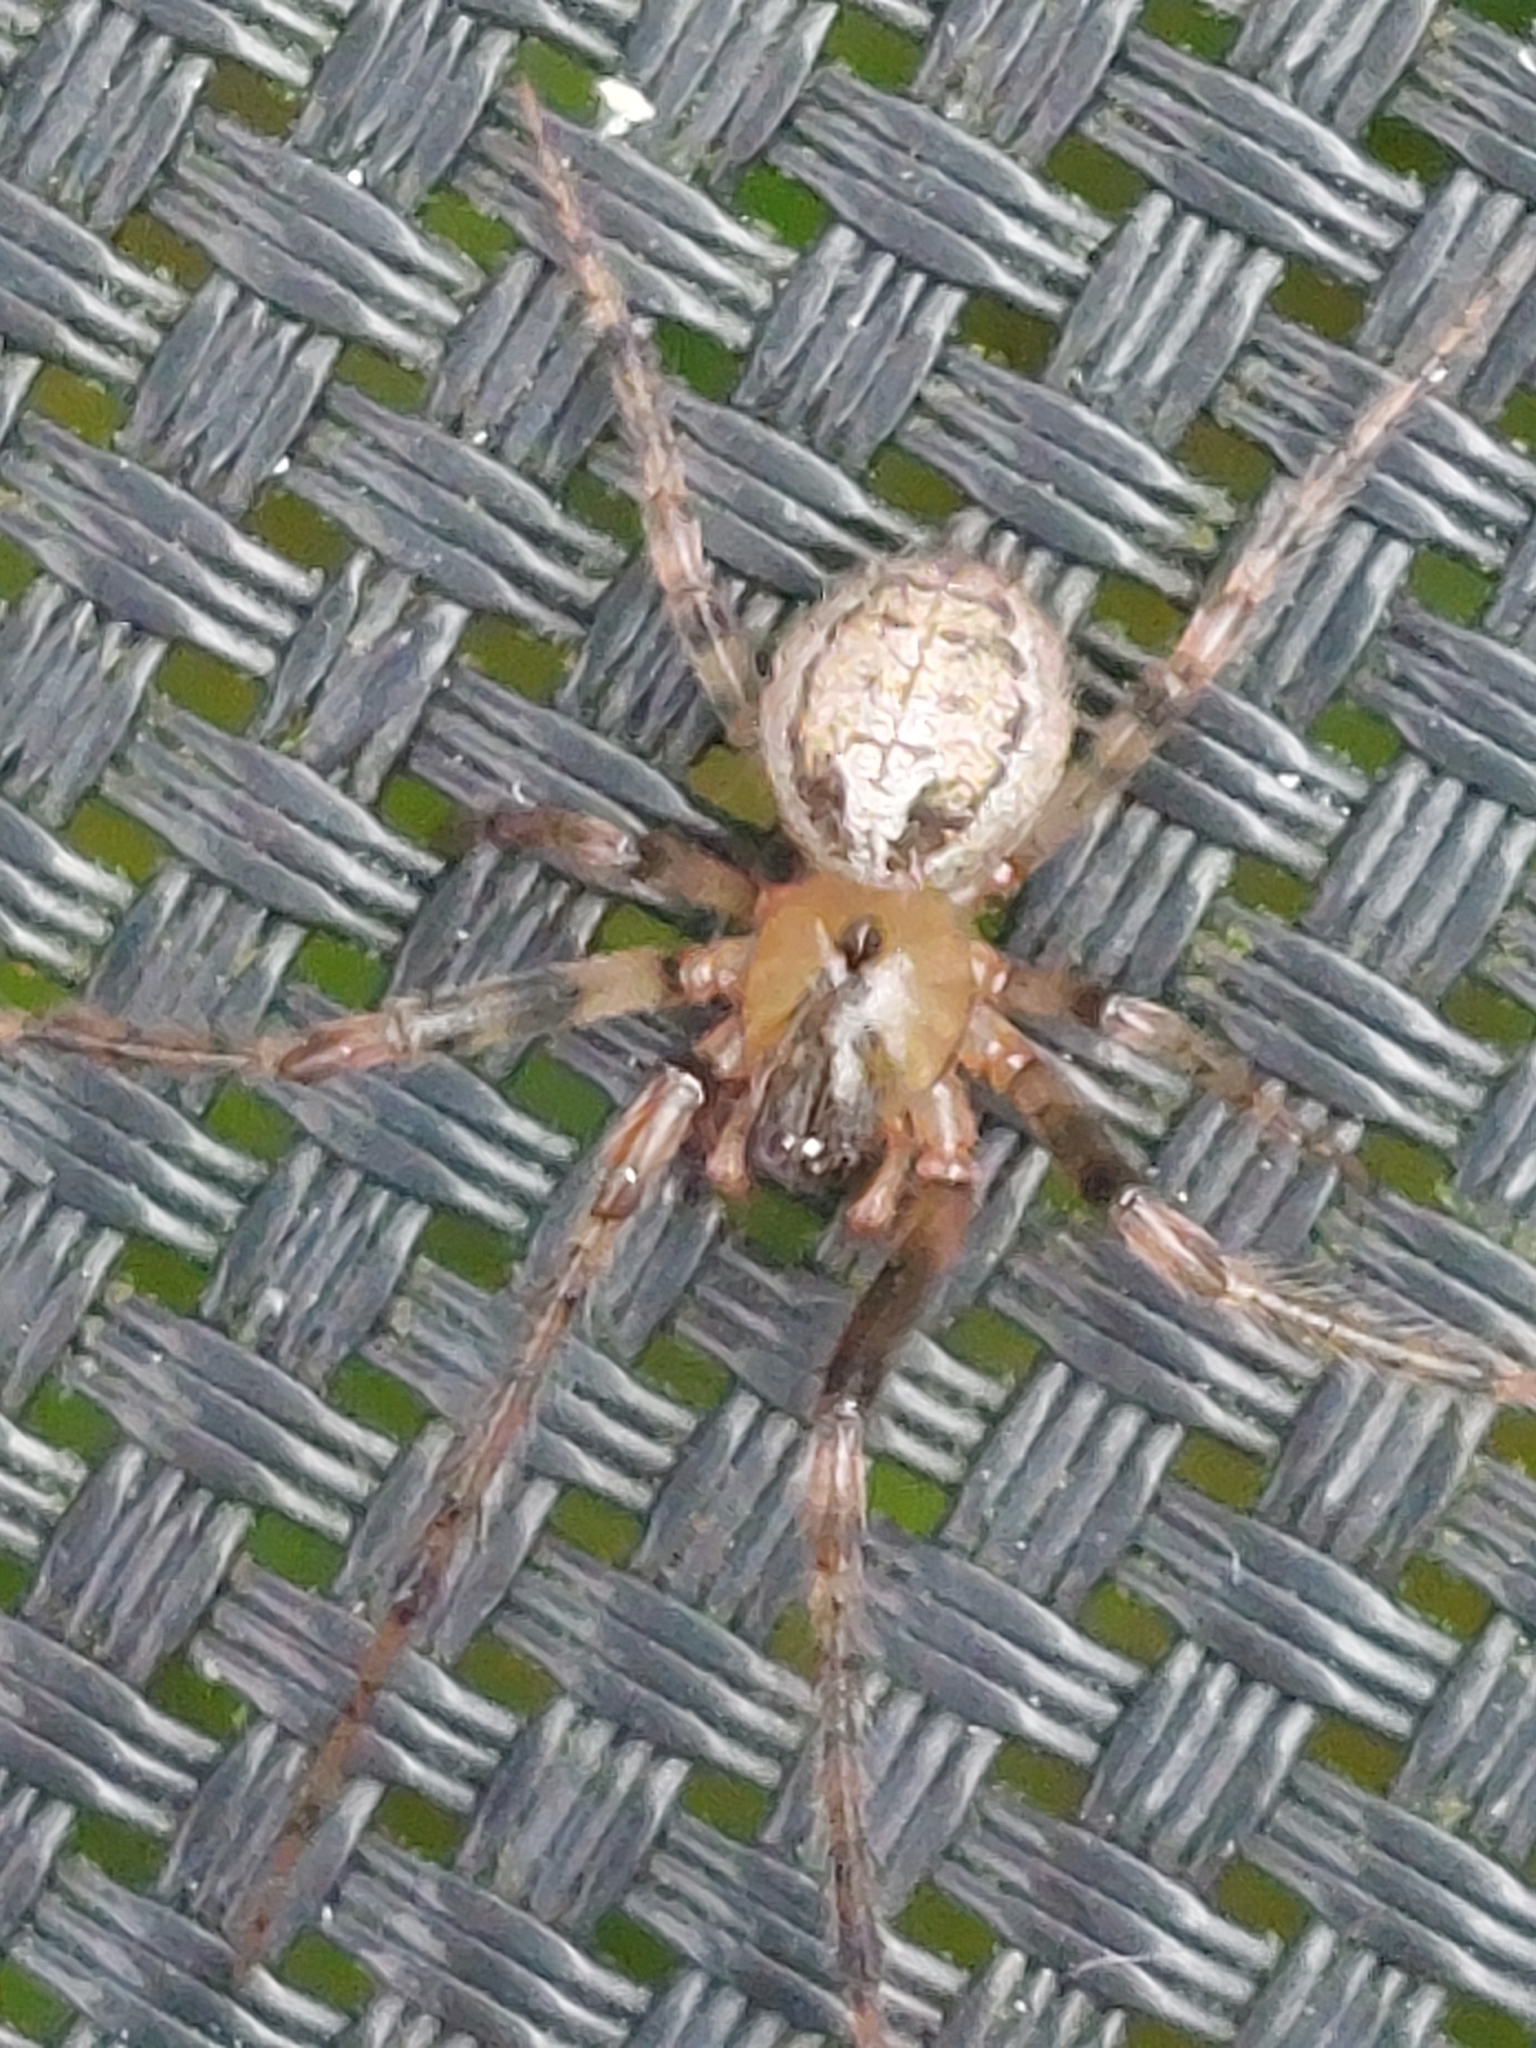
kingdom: Animalia
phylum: Arthropoda
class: Arachnida
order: Araneae
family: Araneidae
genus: Zygiella
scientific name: Zygiella x-notata
